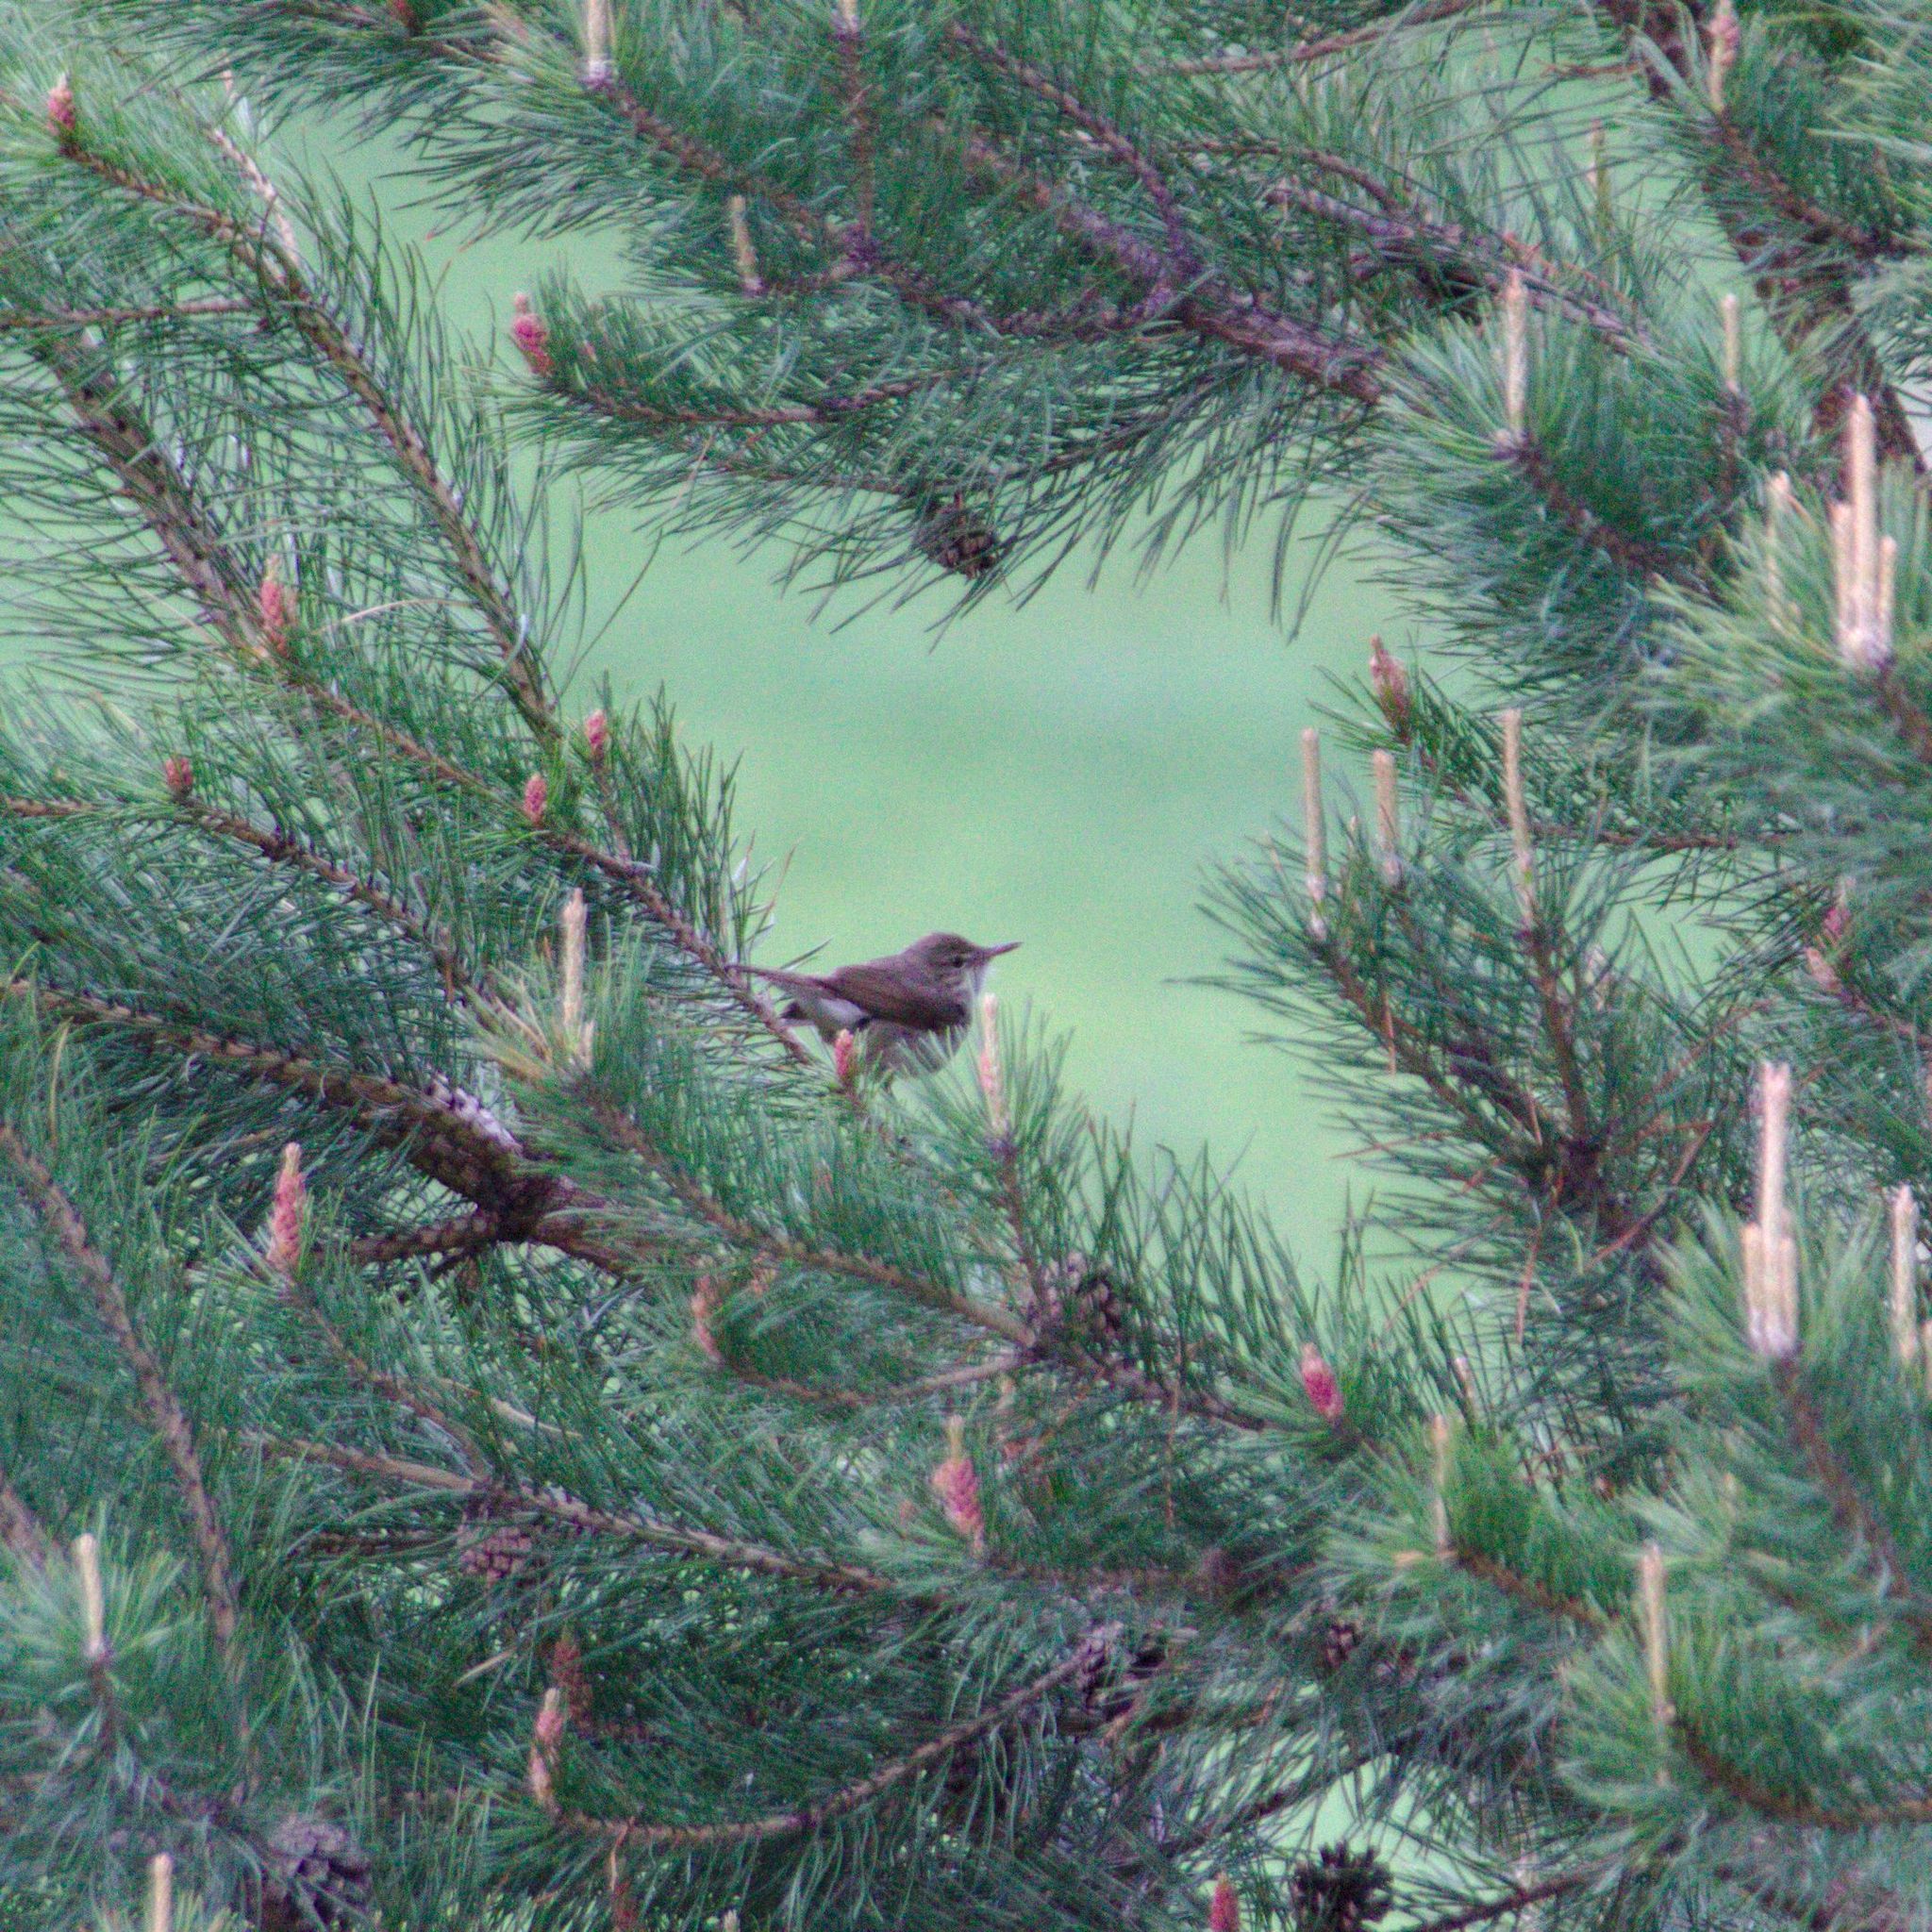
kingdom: Animalia
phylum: Chordata
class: Aves
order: Passeriformes
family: Acrocephalidae
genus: Acrocephalus
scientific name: Acrocephalus dumetorum
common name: Blyth's reed warbler
